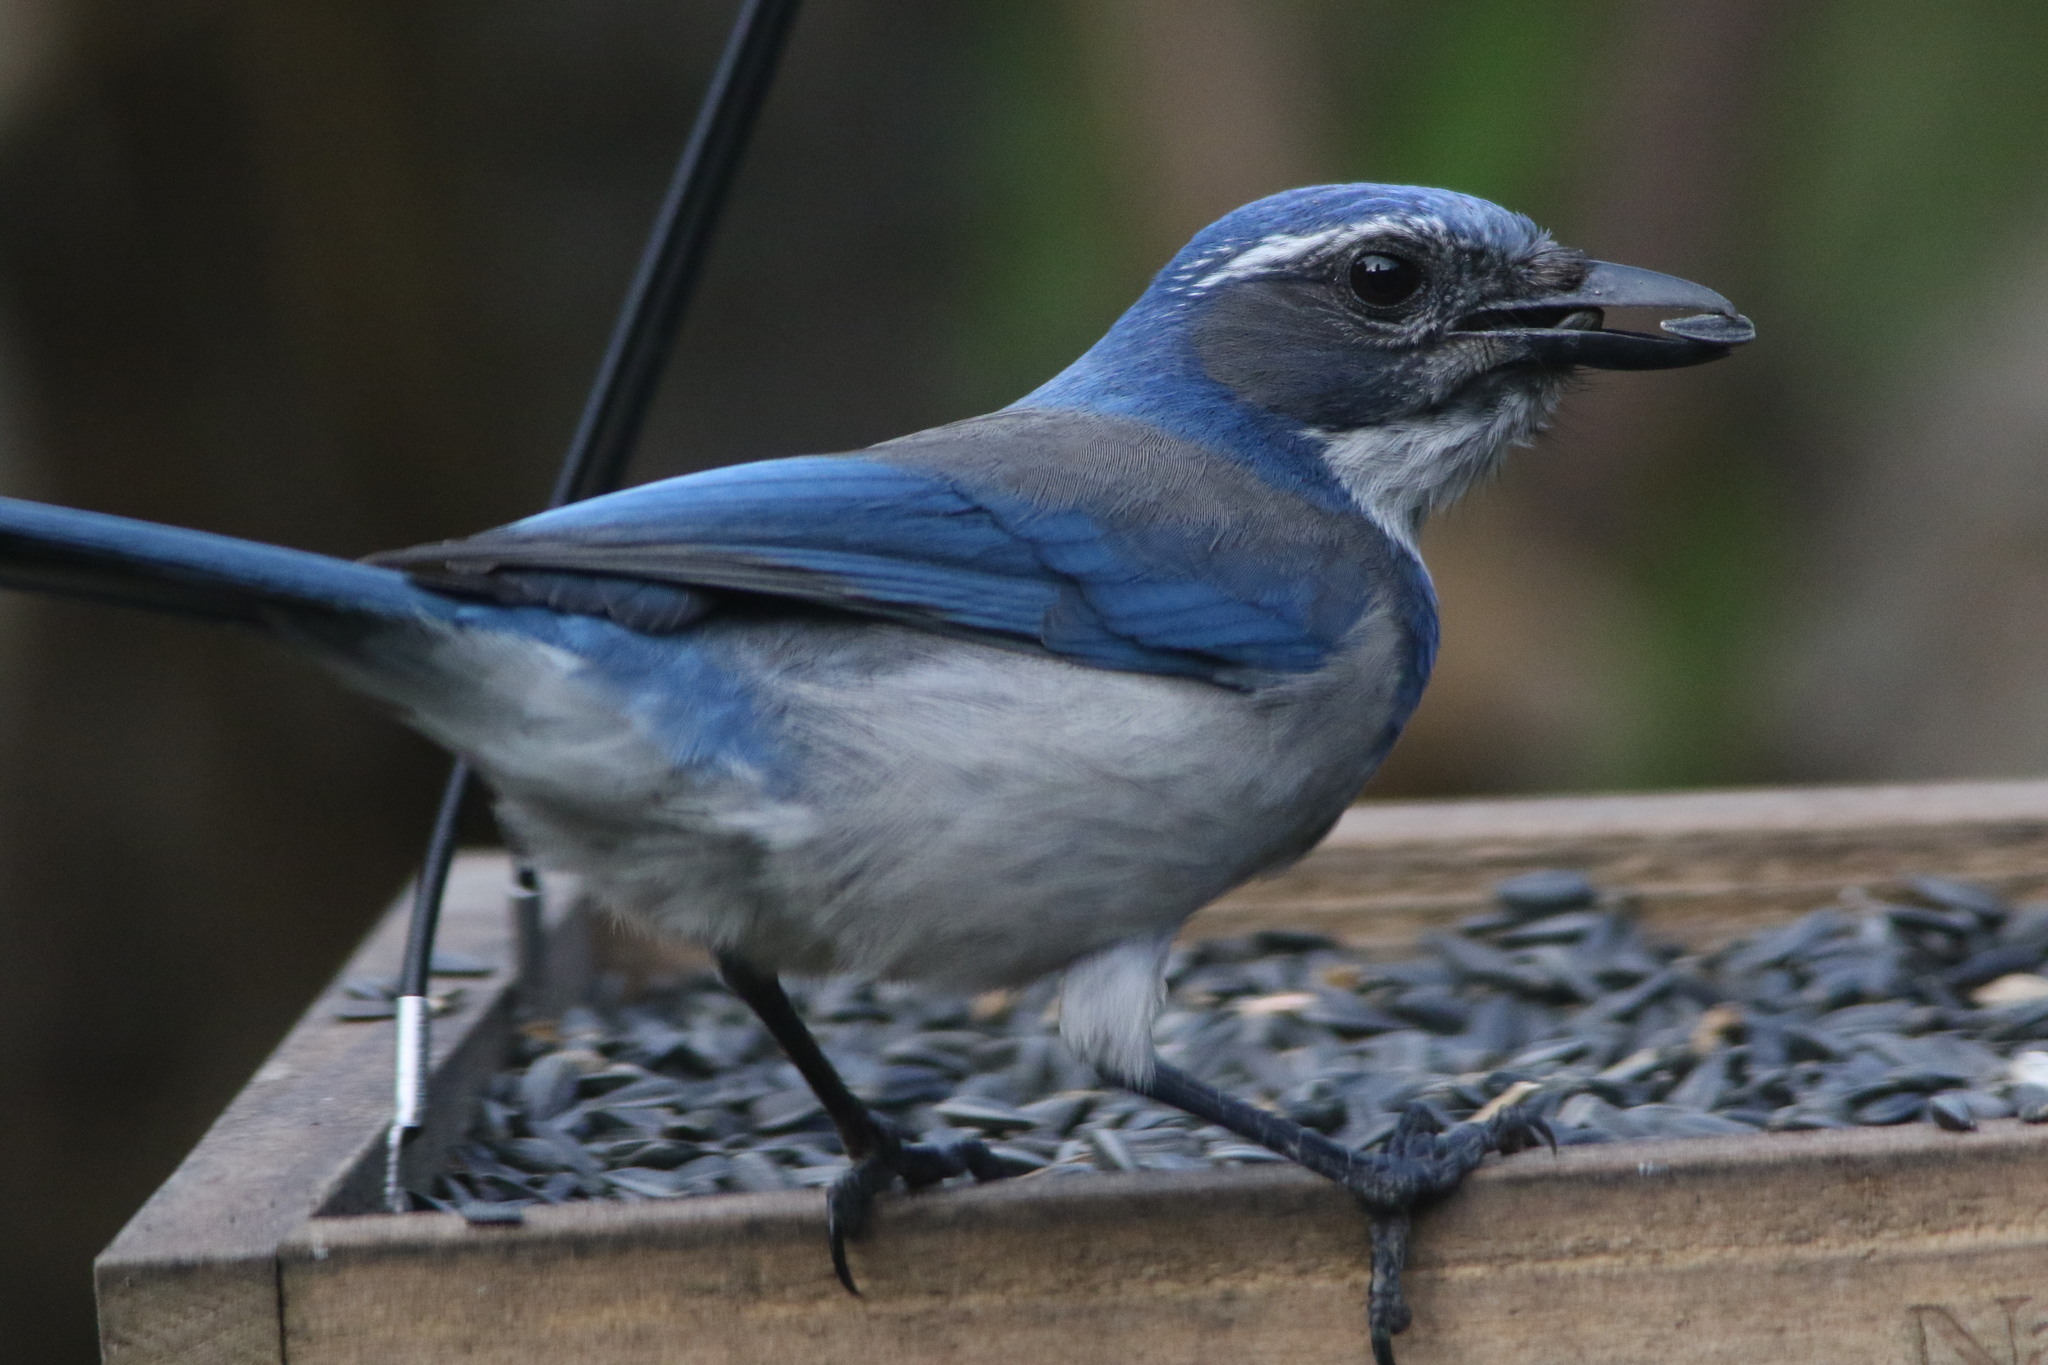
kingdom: Animalia
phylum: Chordata
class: Aves
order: Passeriformes
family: Corvidae
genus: Aphelocoma
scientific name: Aphelocoma californica
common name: California scrub-jay
